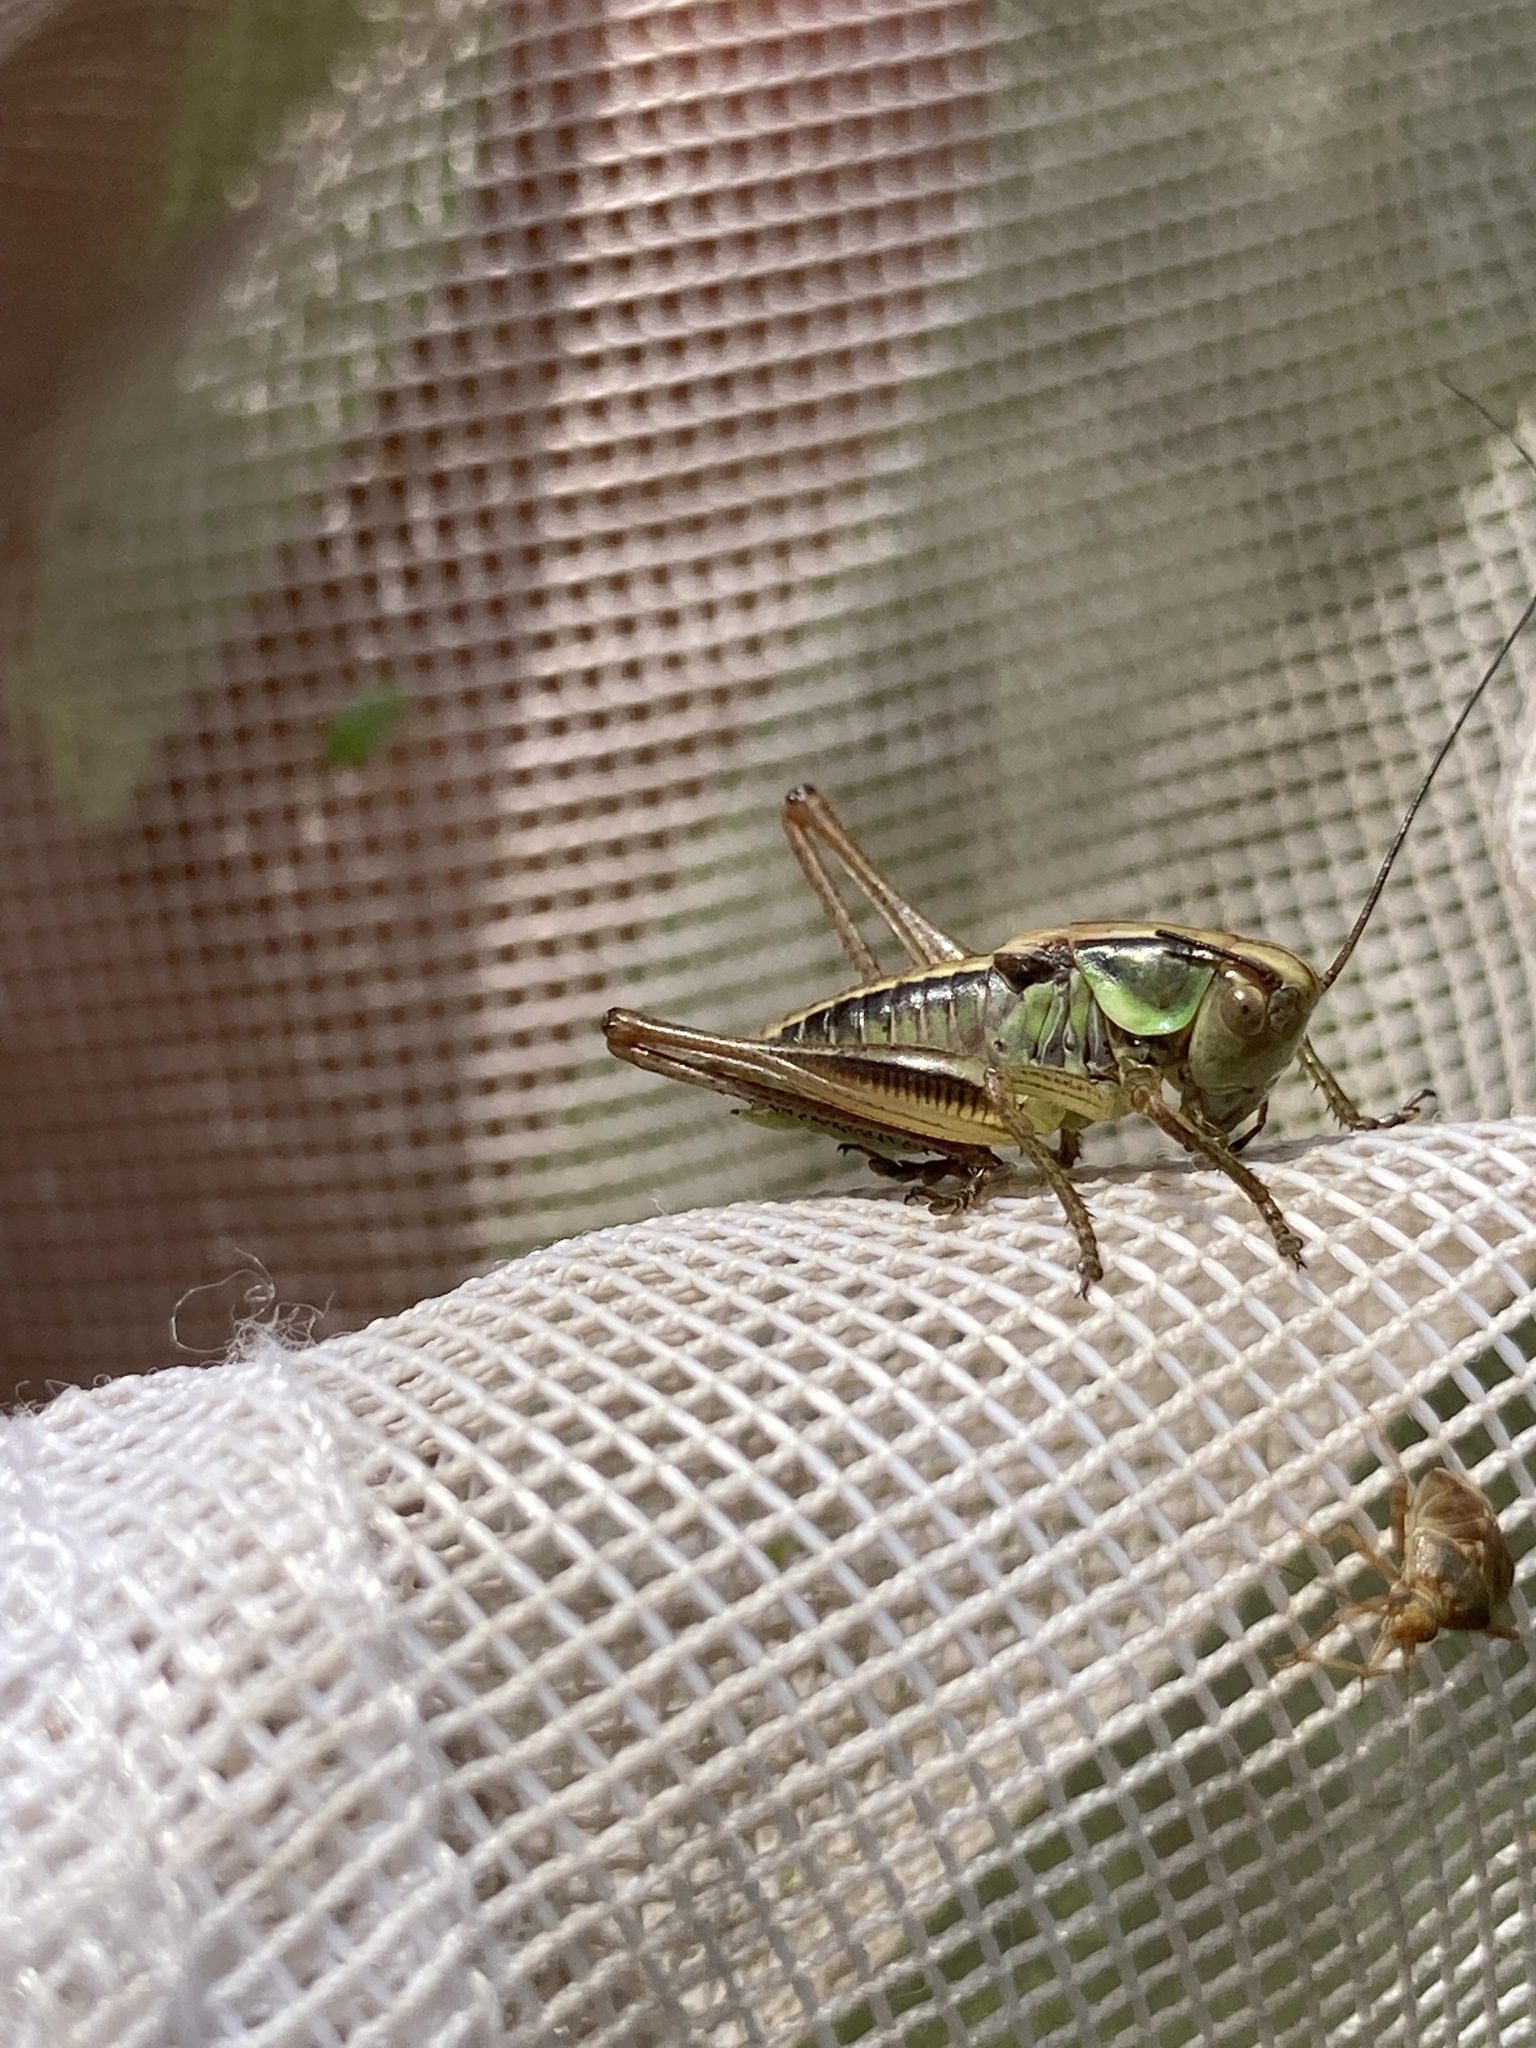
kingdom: Animalia
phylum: Arthropoda
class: Insecta
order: Orthoptera
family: Tettigoniidae
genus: Roeseliana
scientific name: Roeseliana roeselii
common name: Roesel's bush cricket
